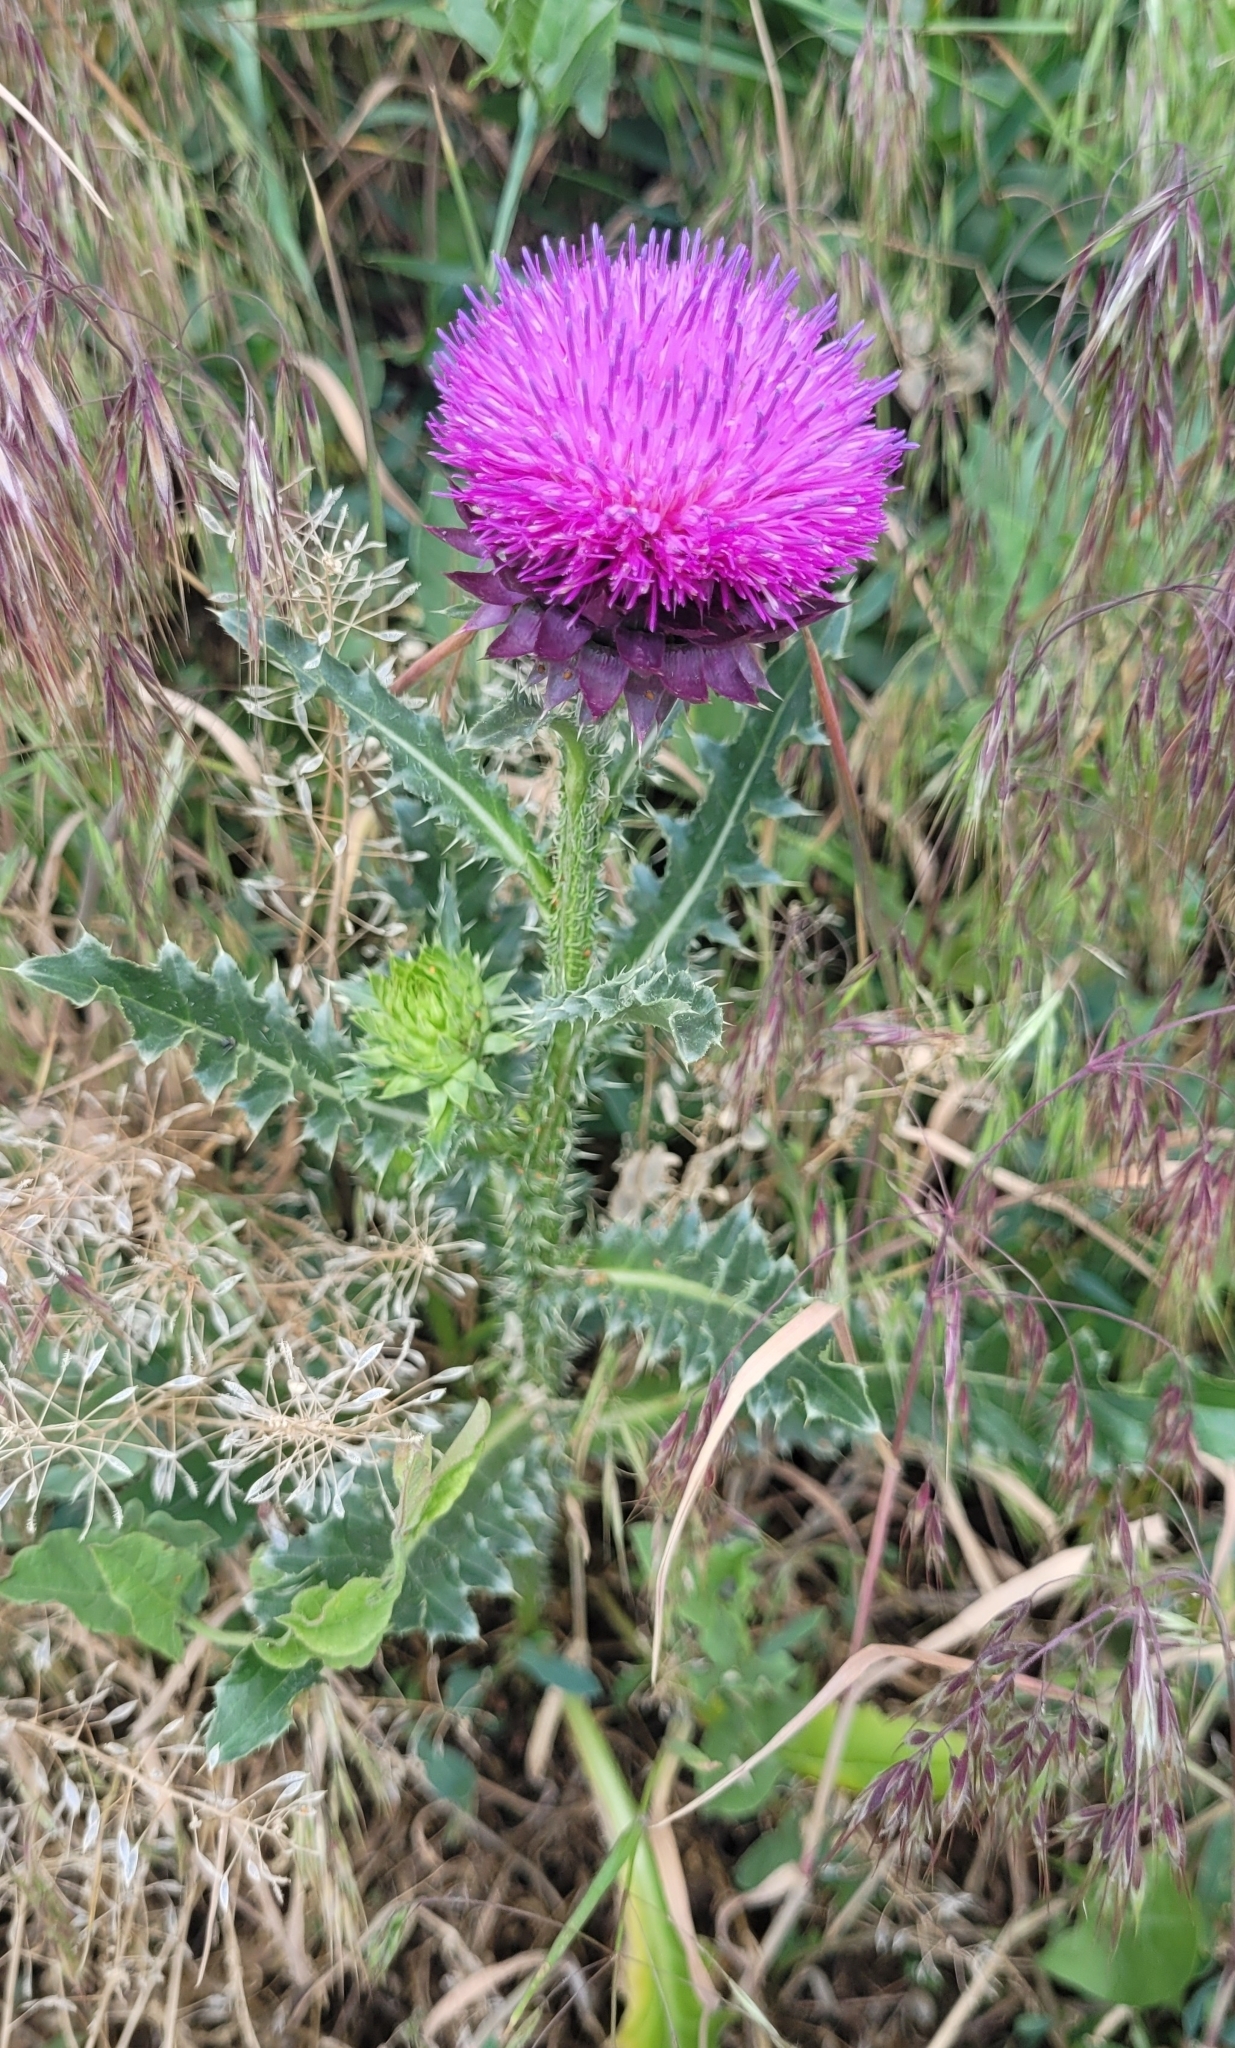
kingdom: Plantae
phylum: Tracheophyta
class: Magnoliopsida
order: Asterales
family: Asteraceae
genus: Carduus
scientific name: Carduus nutans
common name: Musk thistle
